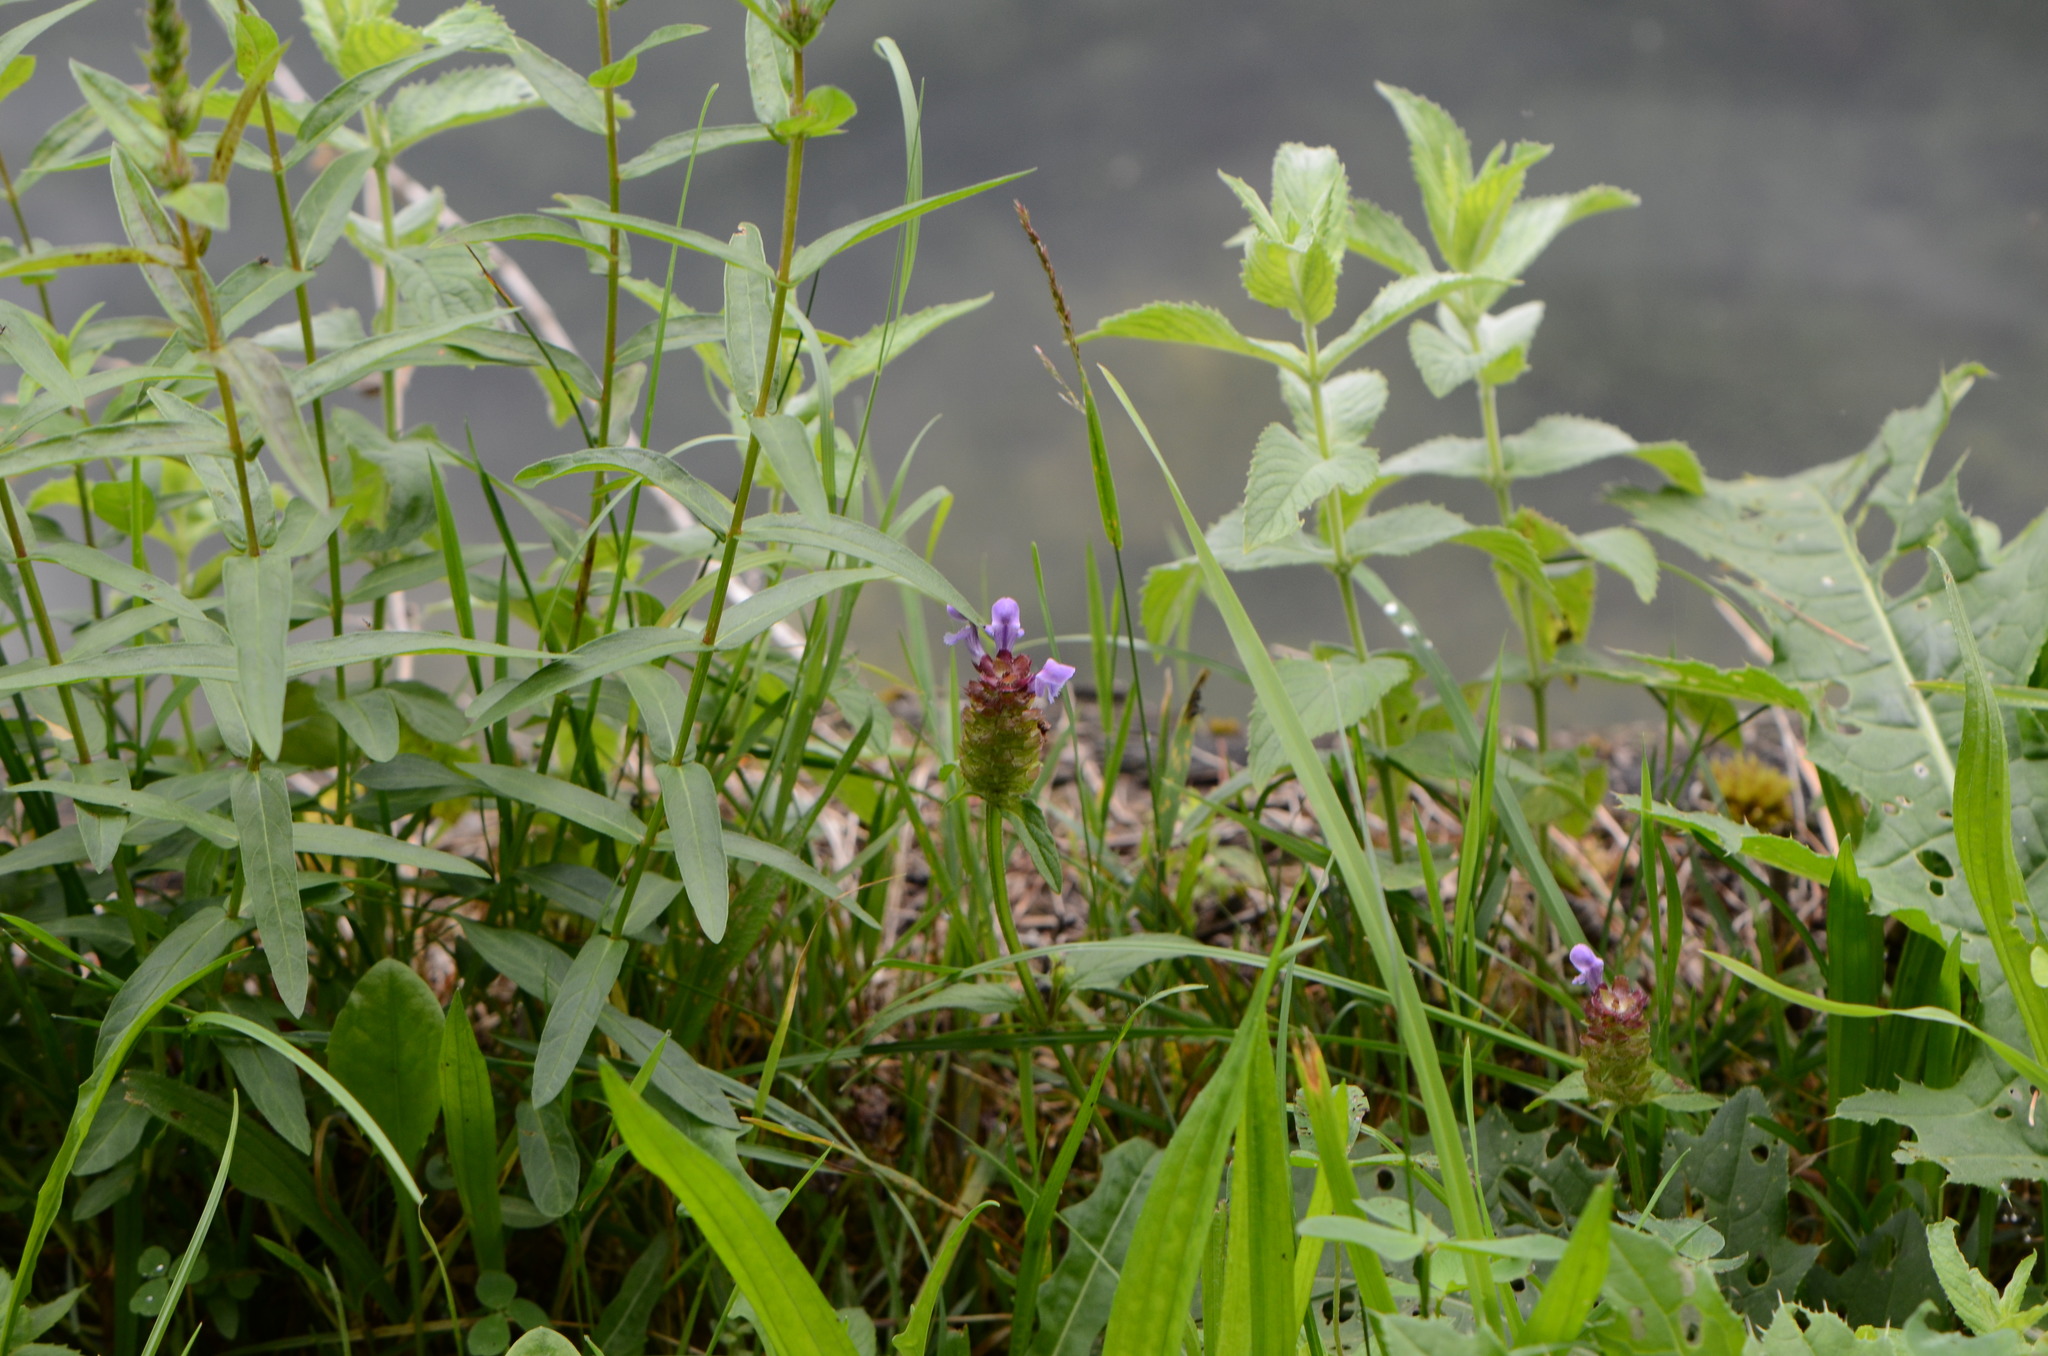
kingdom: Plantae
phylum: Tracheophyta
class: Magnoliopsida
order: Lamiales
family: Lamiaceae
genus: Prunella
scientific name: Prunella vulgaris
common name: Heal-all
